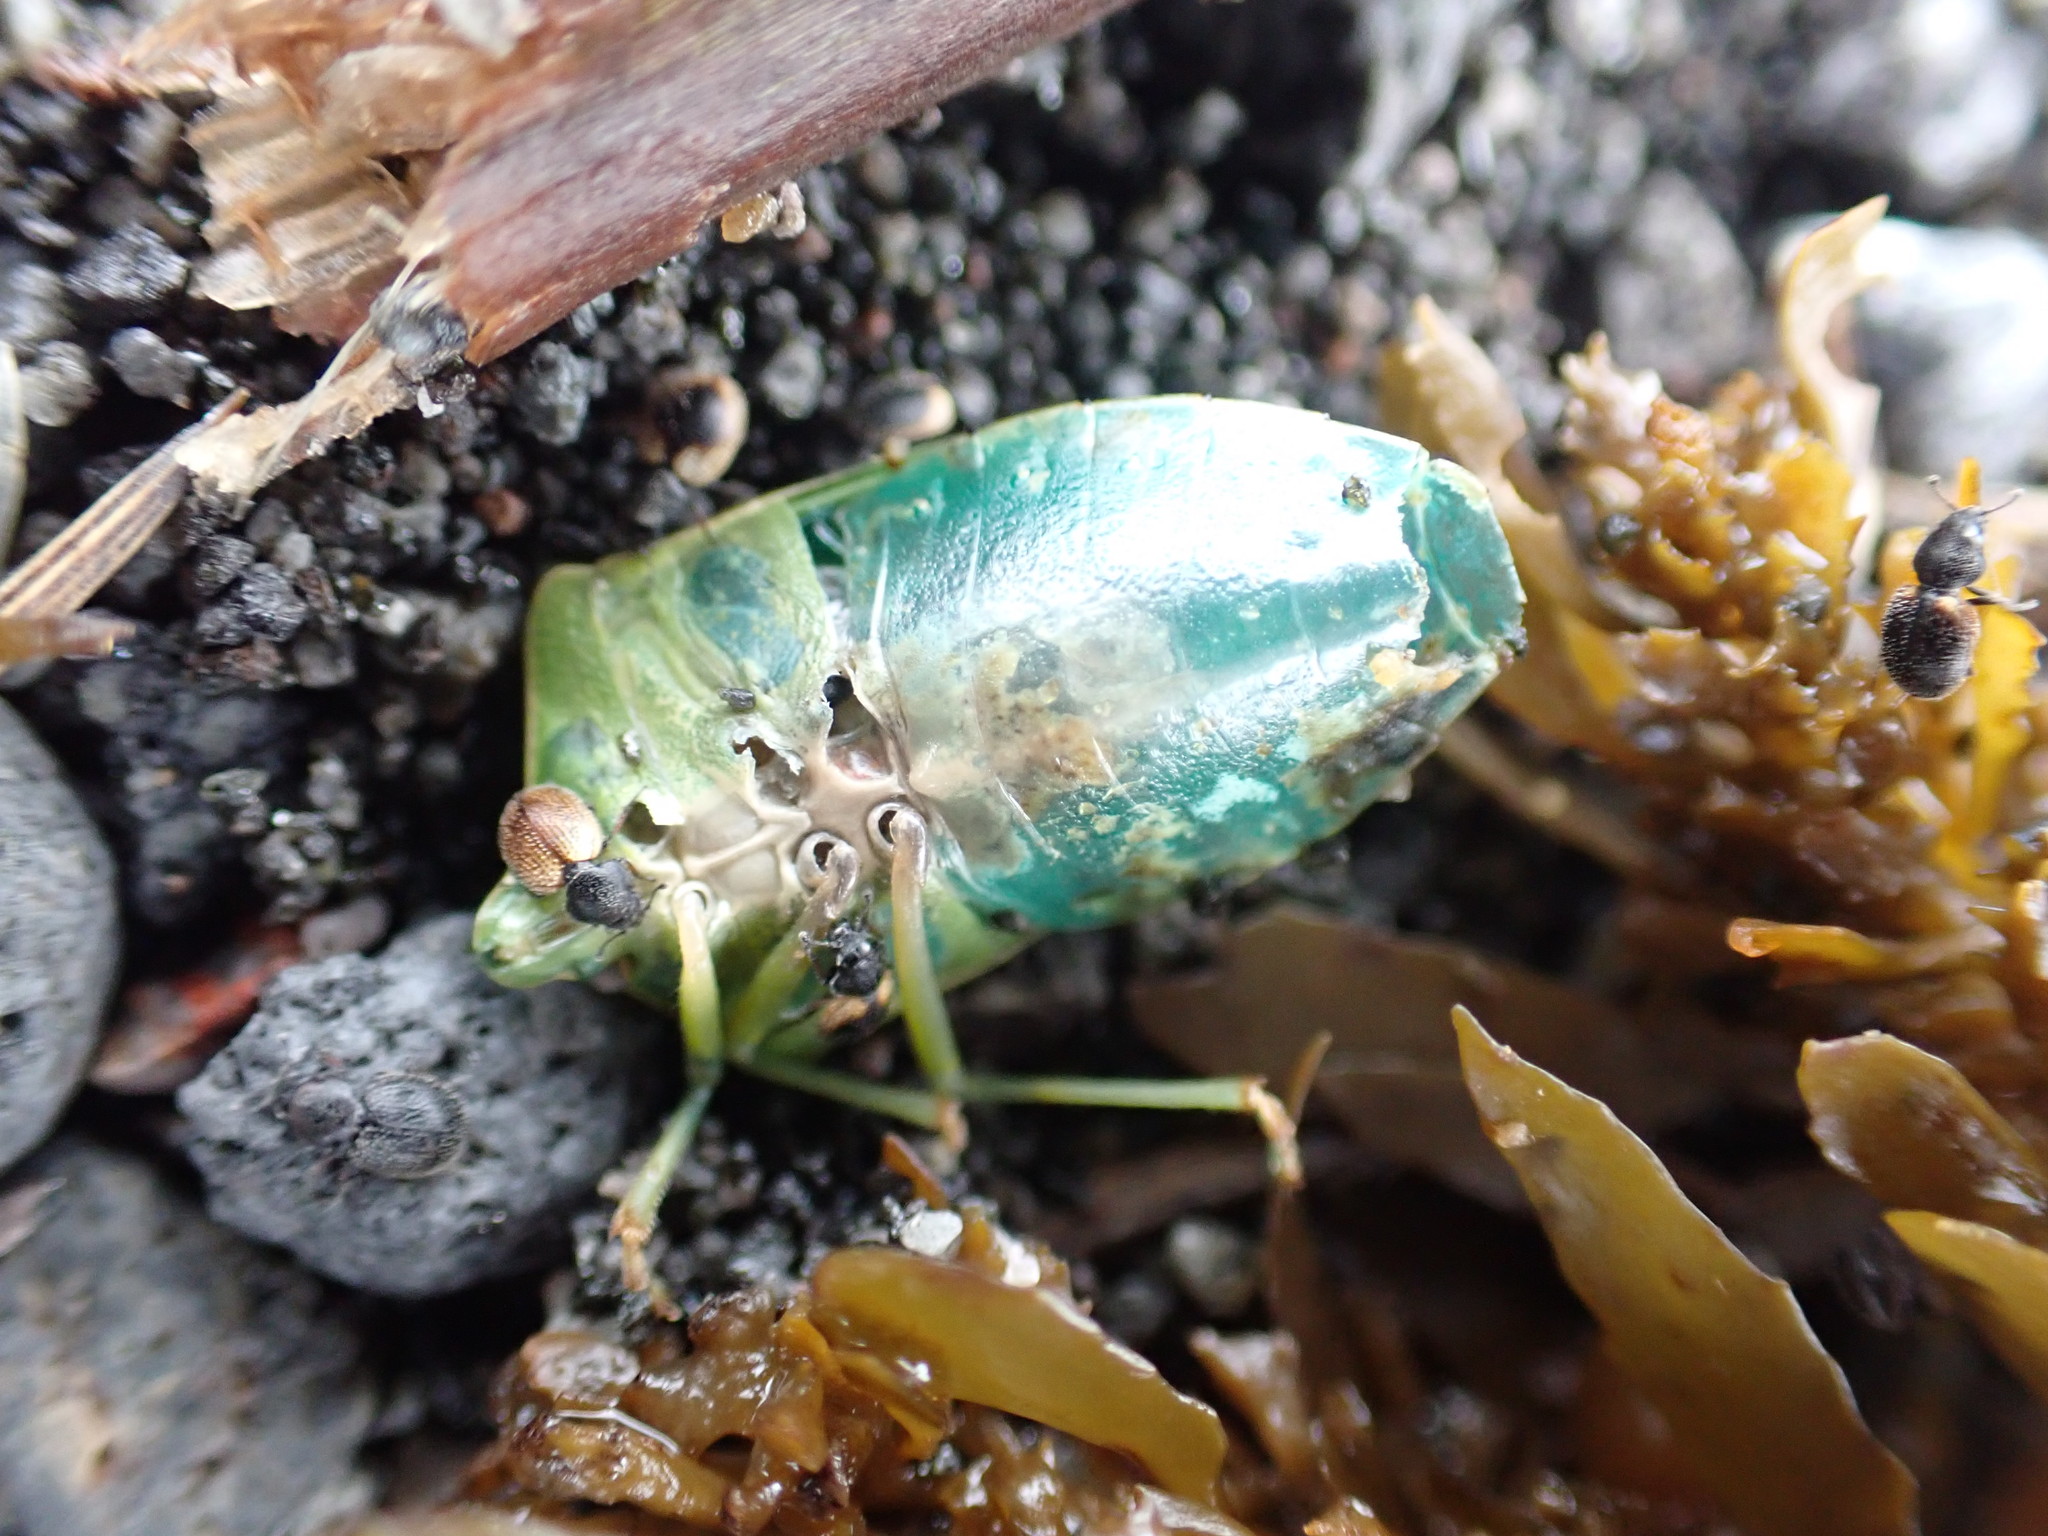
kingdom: Animalia
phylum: Arthropoda
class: Insecta
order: Hemiptera
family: Pentatomidae
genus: Nezara
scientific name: Nezara viridula
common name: Southern green stink bug
